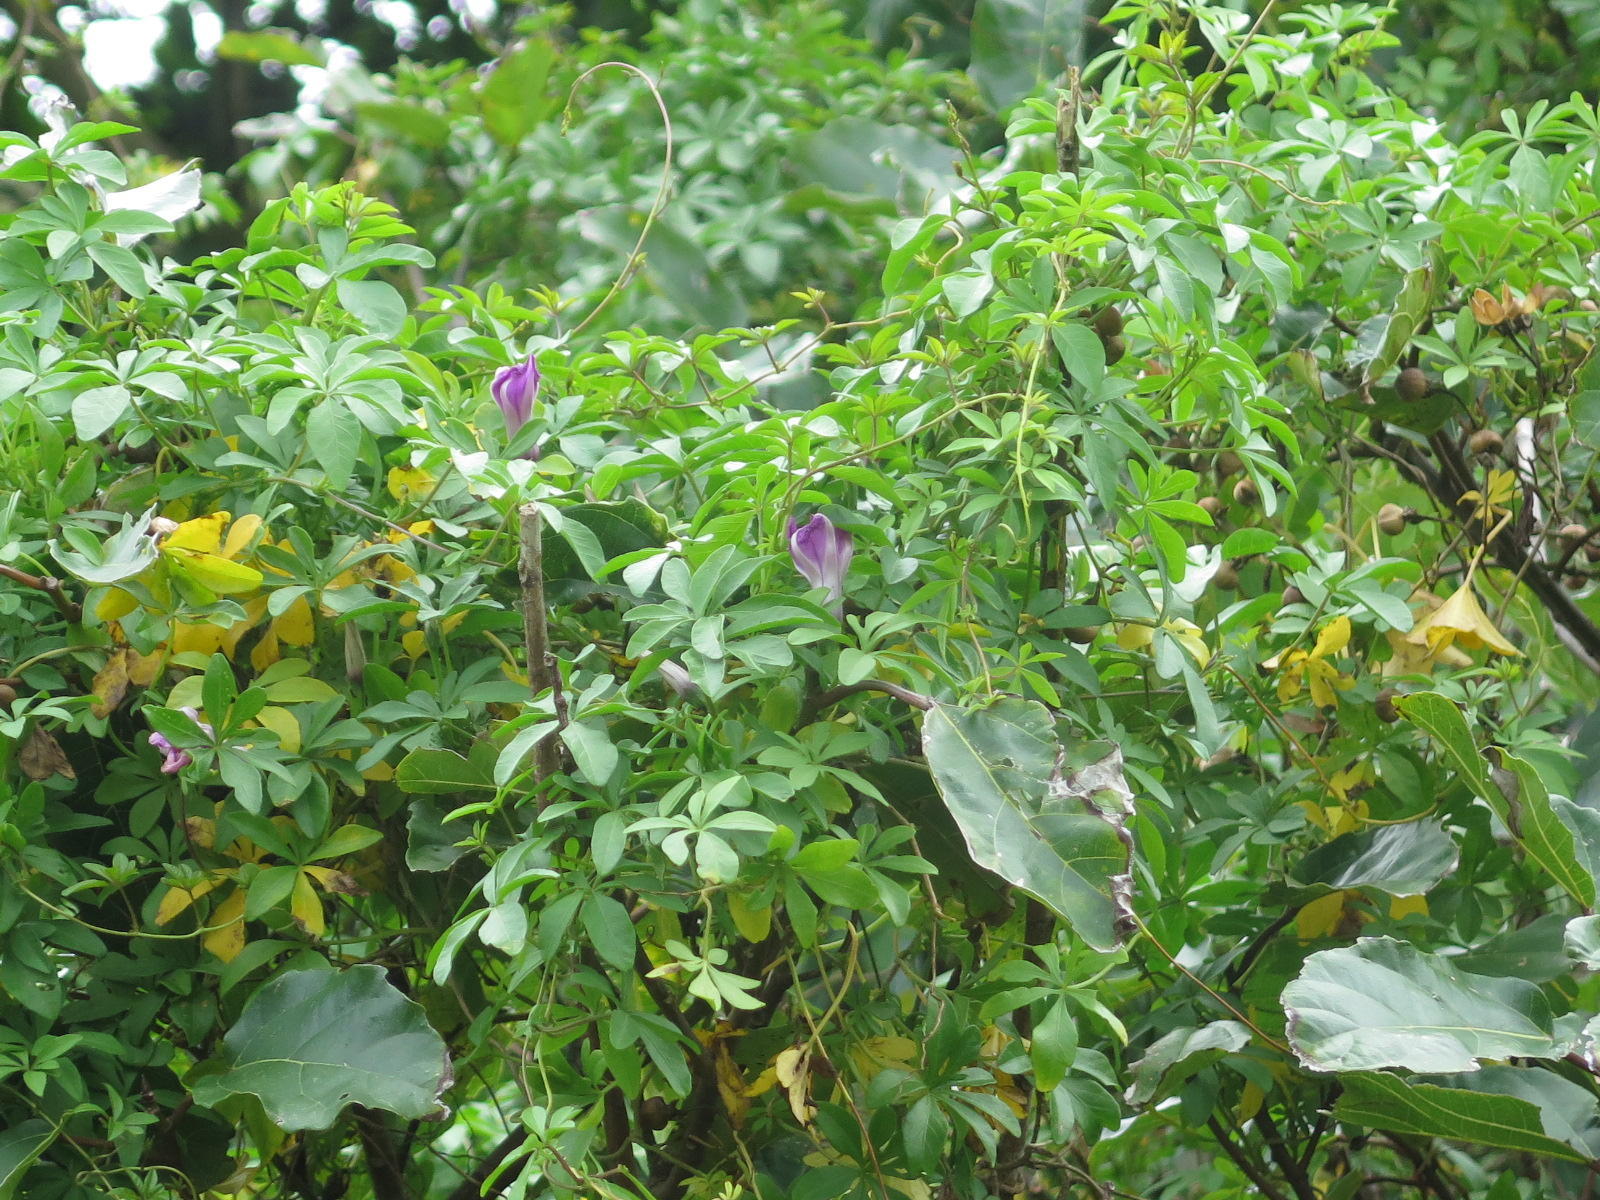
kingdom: Plantae
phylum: Tracheophyta
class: Magnoliopsida
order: Solanales
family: Convolvulaceae
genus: Ipomoea
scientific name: Ipomoea cairica
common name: Mile a minute vine
